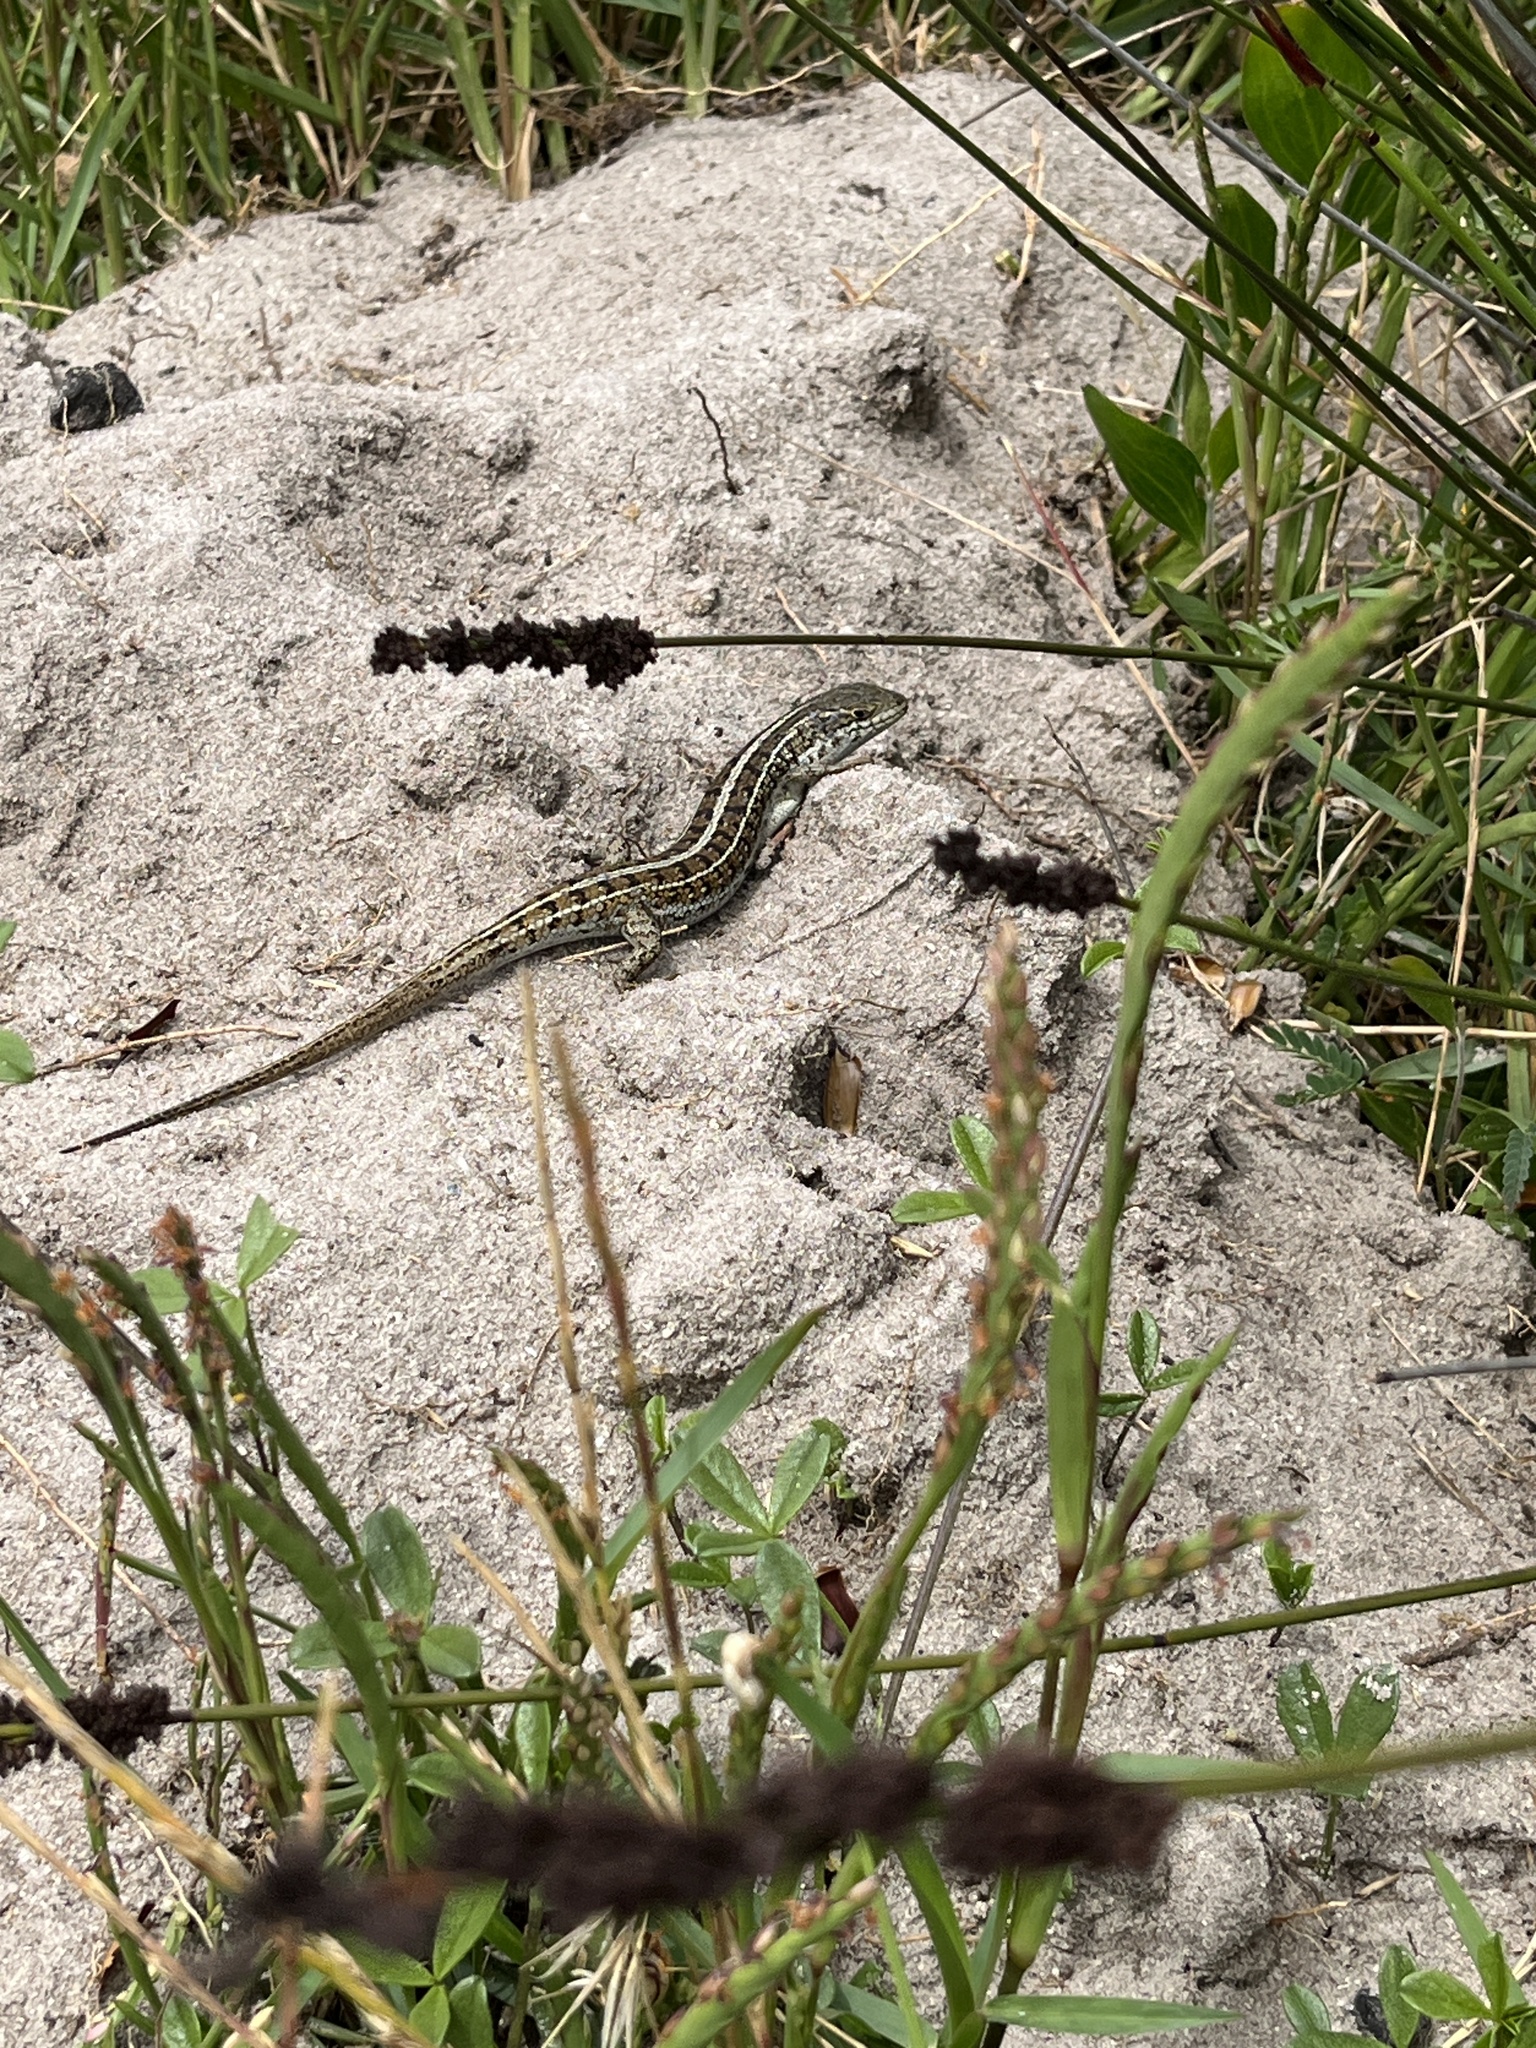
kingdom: Animalia
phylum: Chordata
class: Squamata
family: Scincidae
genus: Trachylepis
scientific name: Trachylepis capensis
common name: Cape skink
